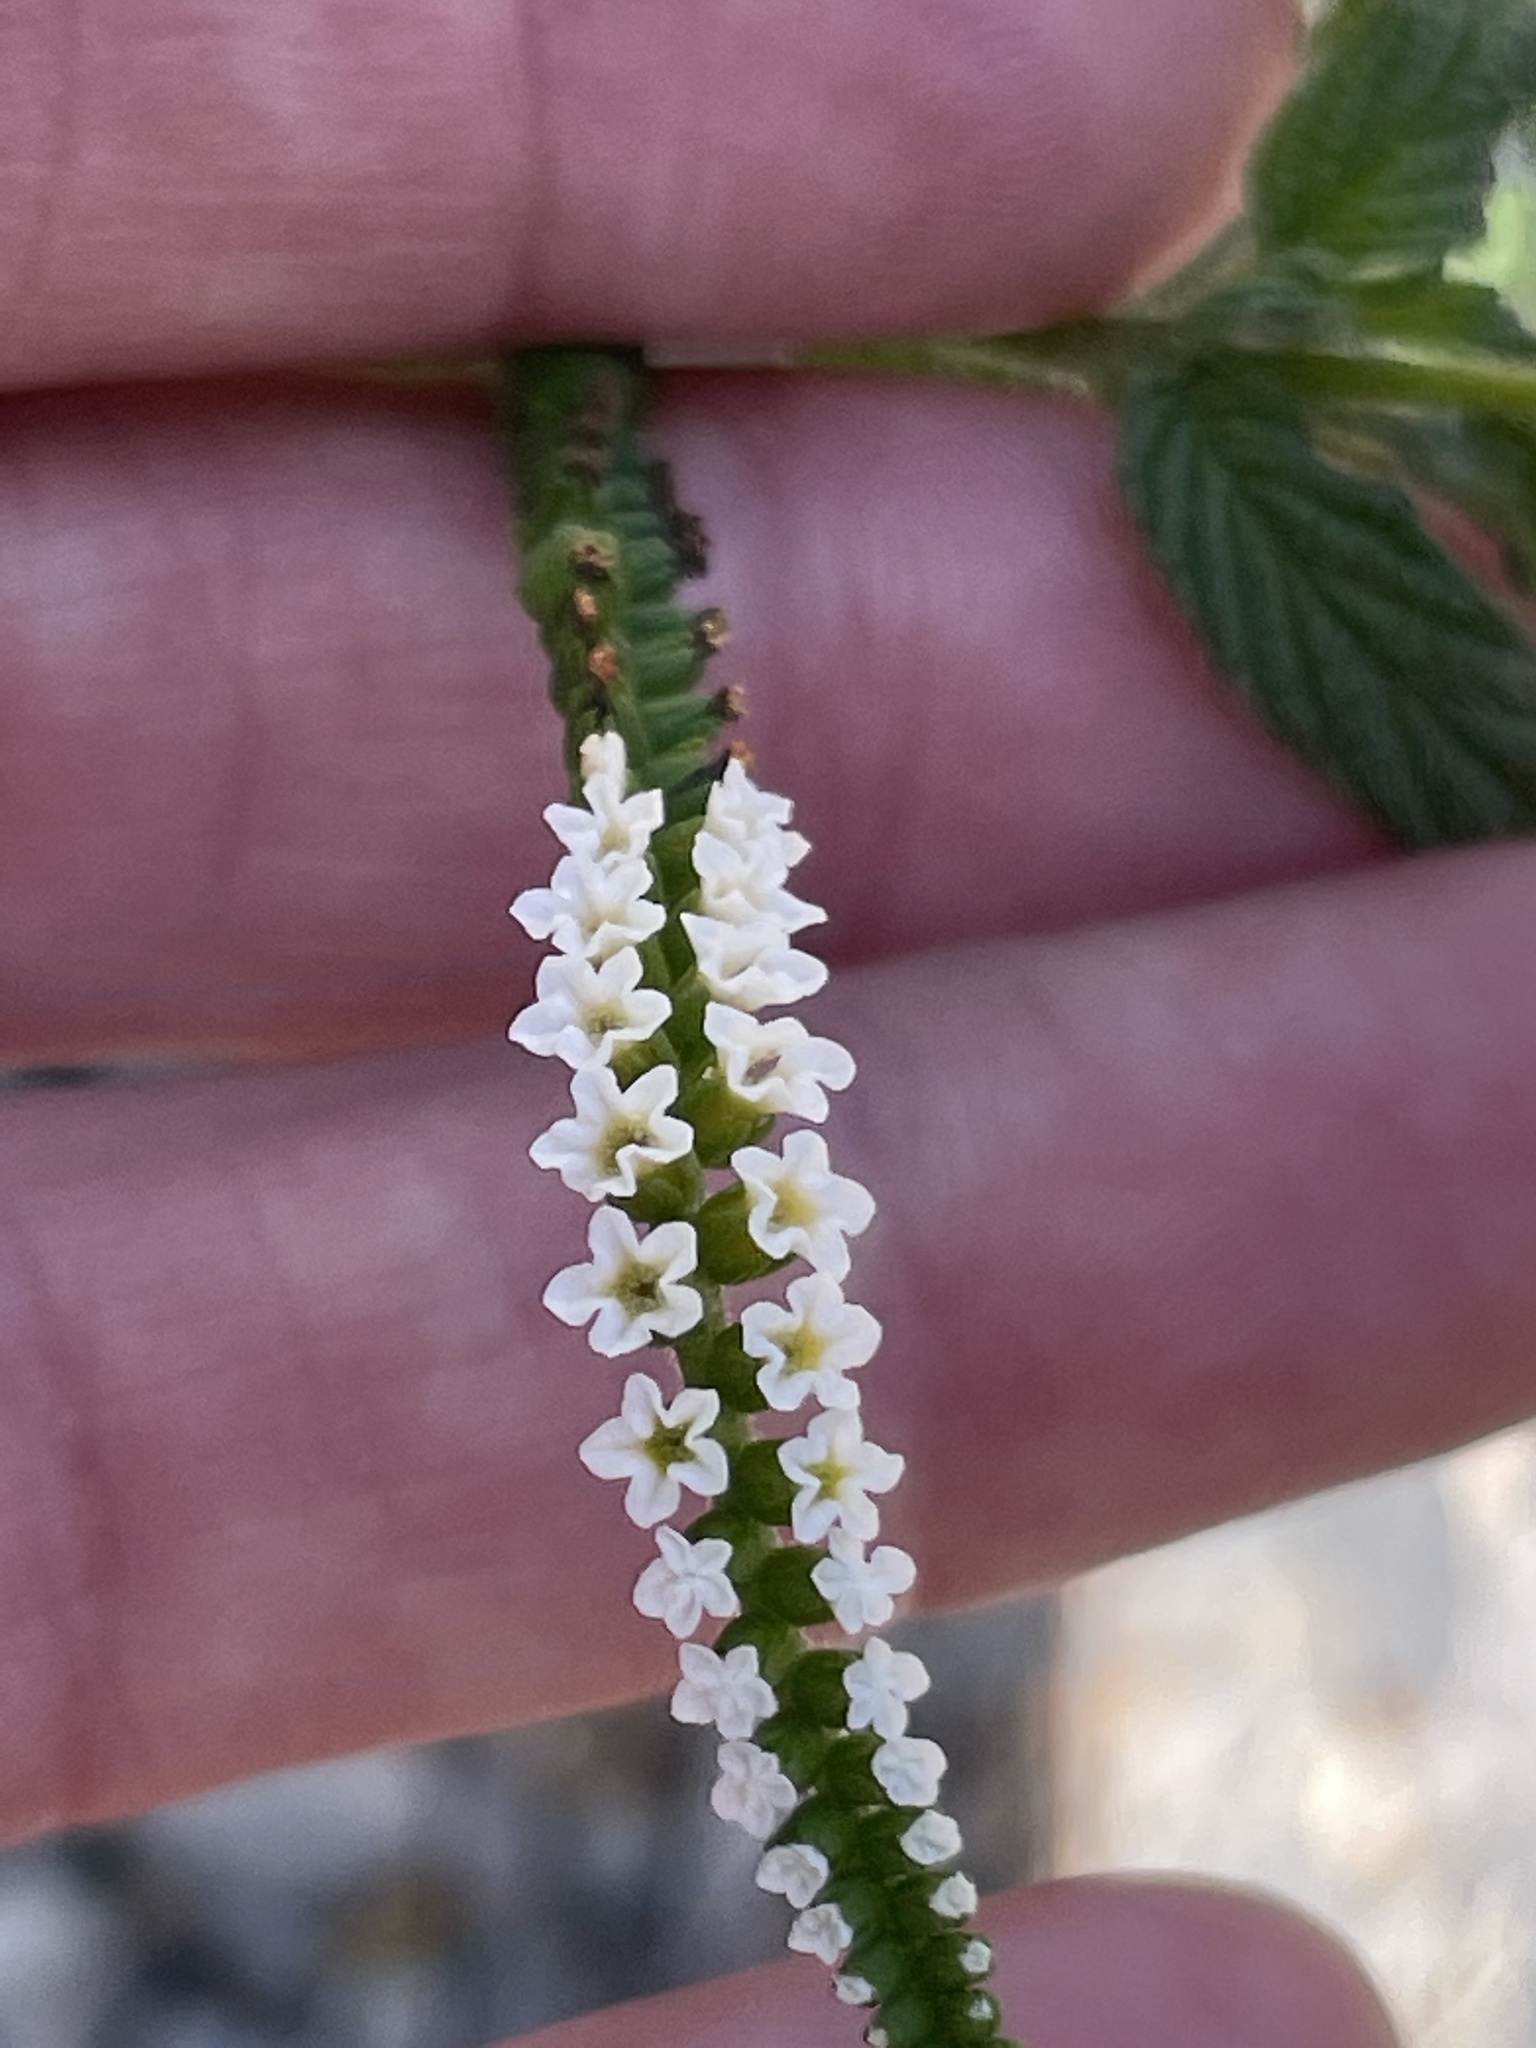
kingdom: Plantae
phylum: Tracheophyta
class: Magnoliopsida
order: Boraginales
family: Heliotropiaceae
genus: Heliotropium
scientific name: Heliotropium angiospermum
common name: Eye bright
